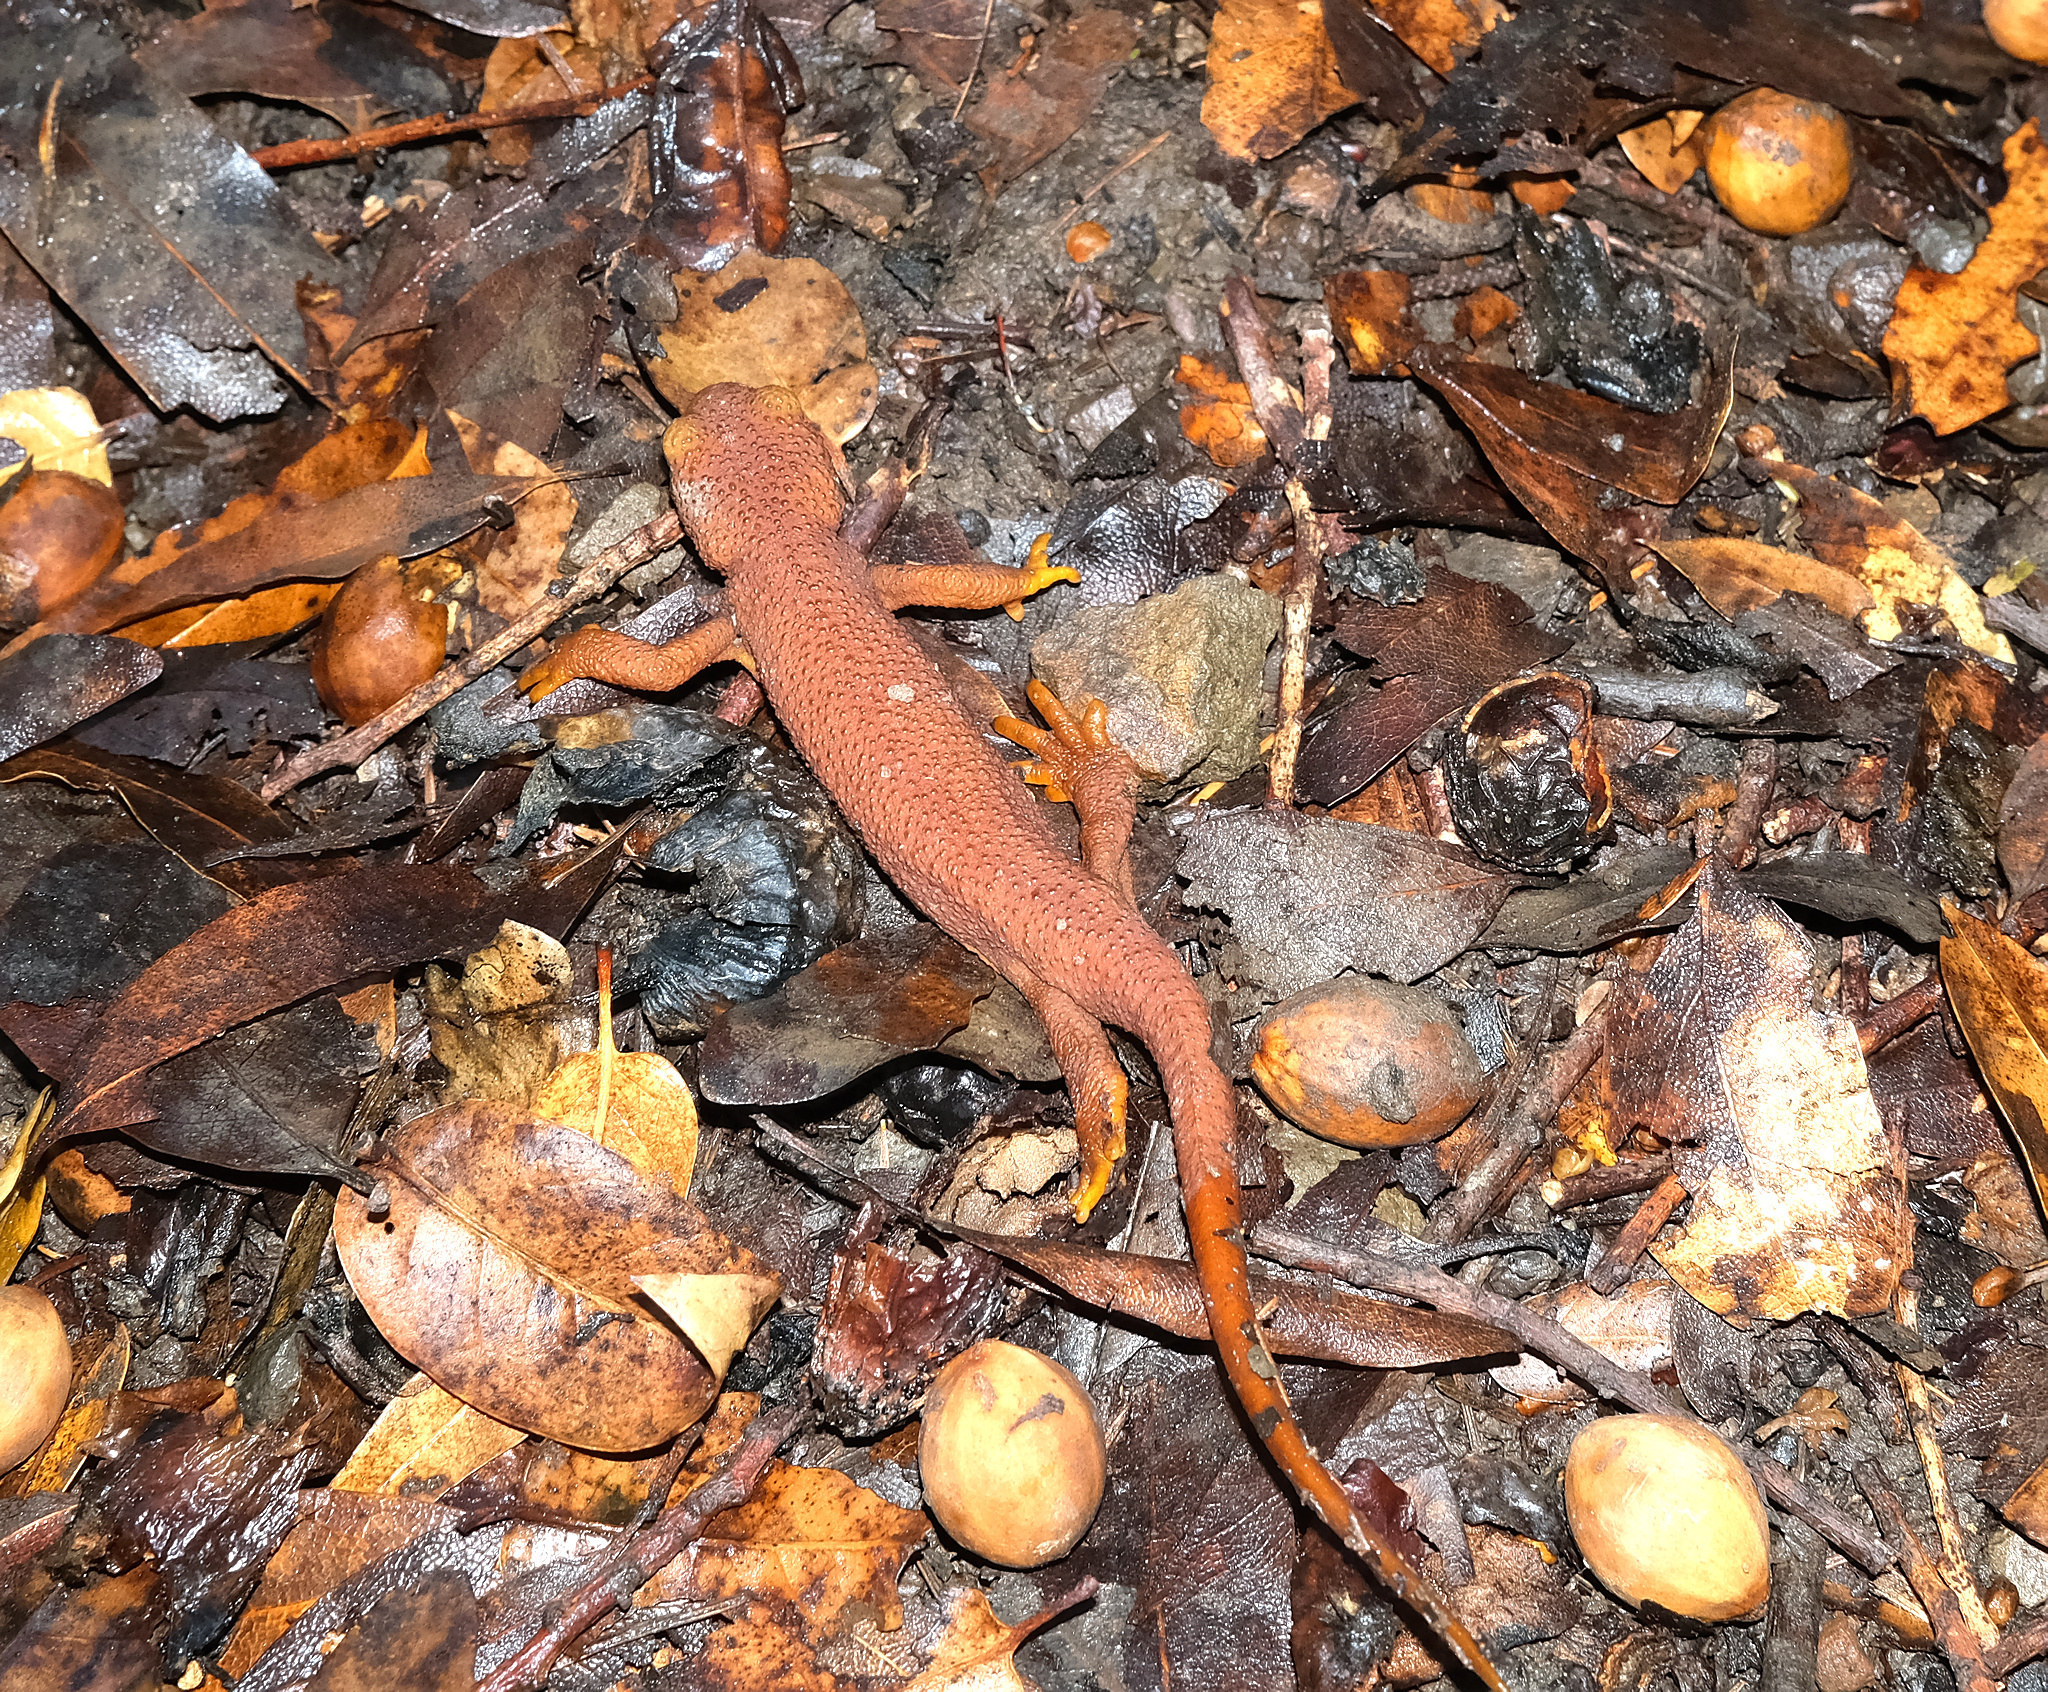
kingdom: Animalia
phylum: Chordata
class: Amphibia
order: Caudata
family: Salamandridae
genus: Taricha
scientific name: Taricha torosa
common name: California newt
